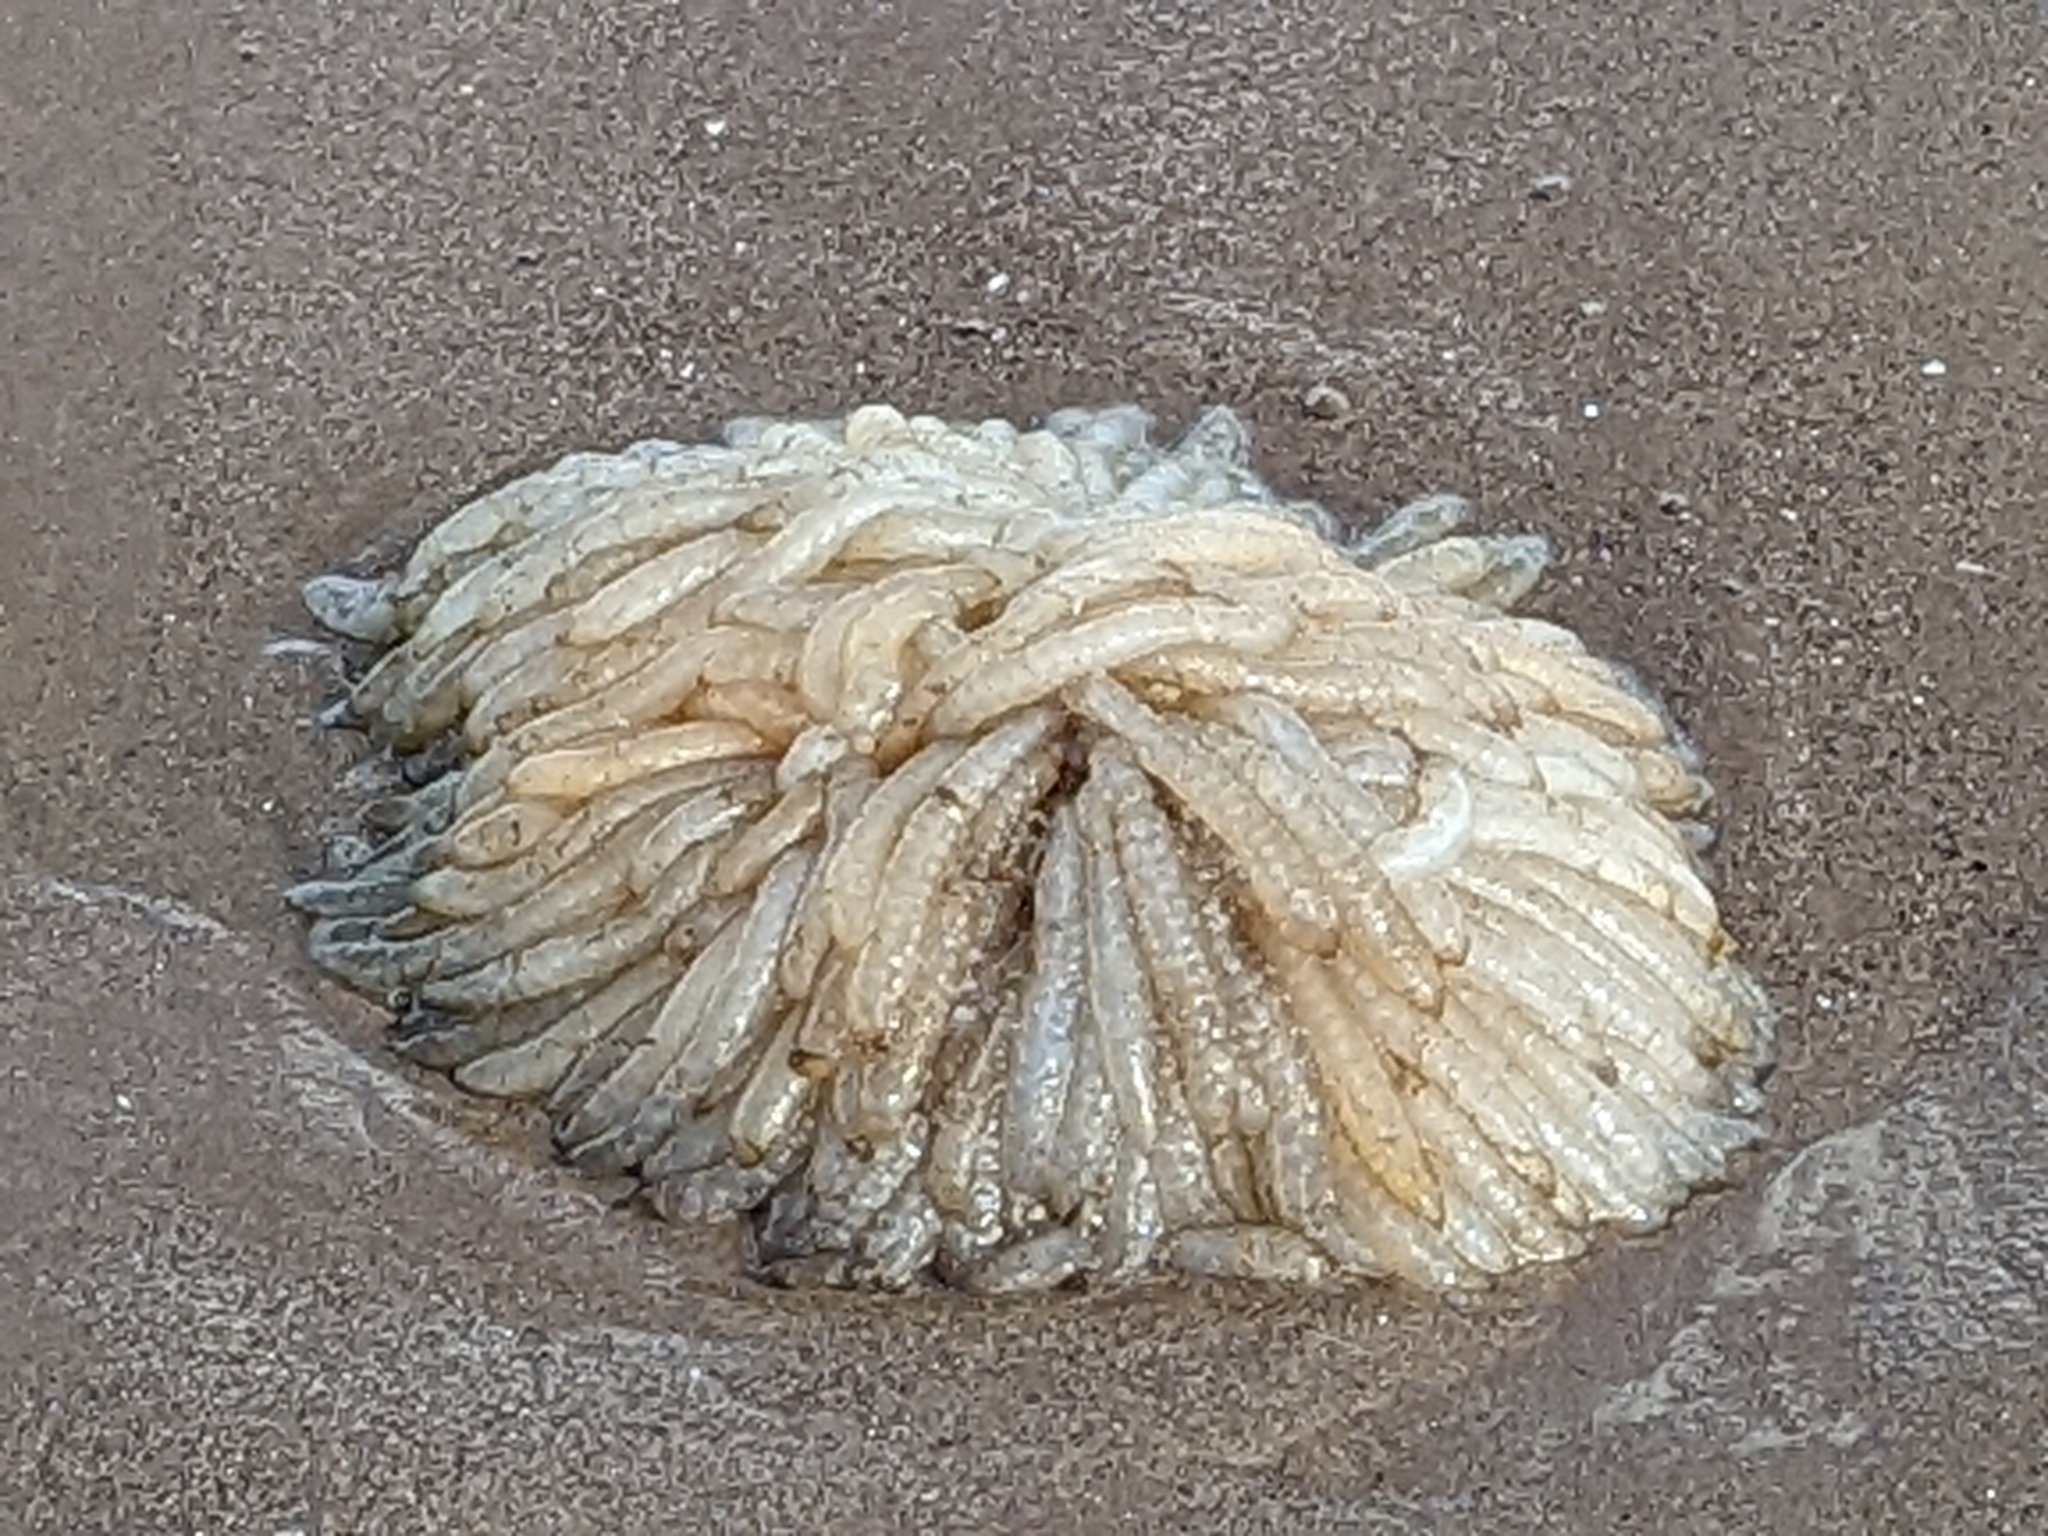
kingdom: Animalia
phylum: Mollusca
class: Cephalopoda
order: Myopsida
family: Loliginidae
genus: Loligo
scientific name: Loligo vulgaris
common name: European squid
